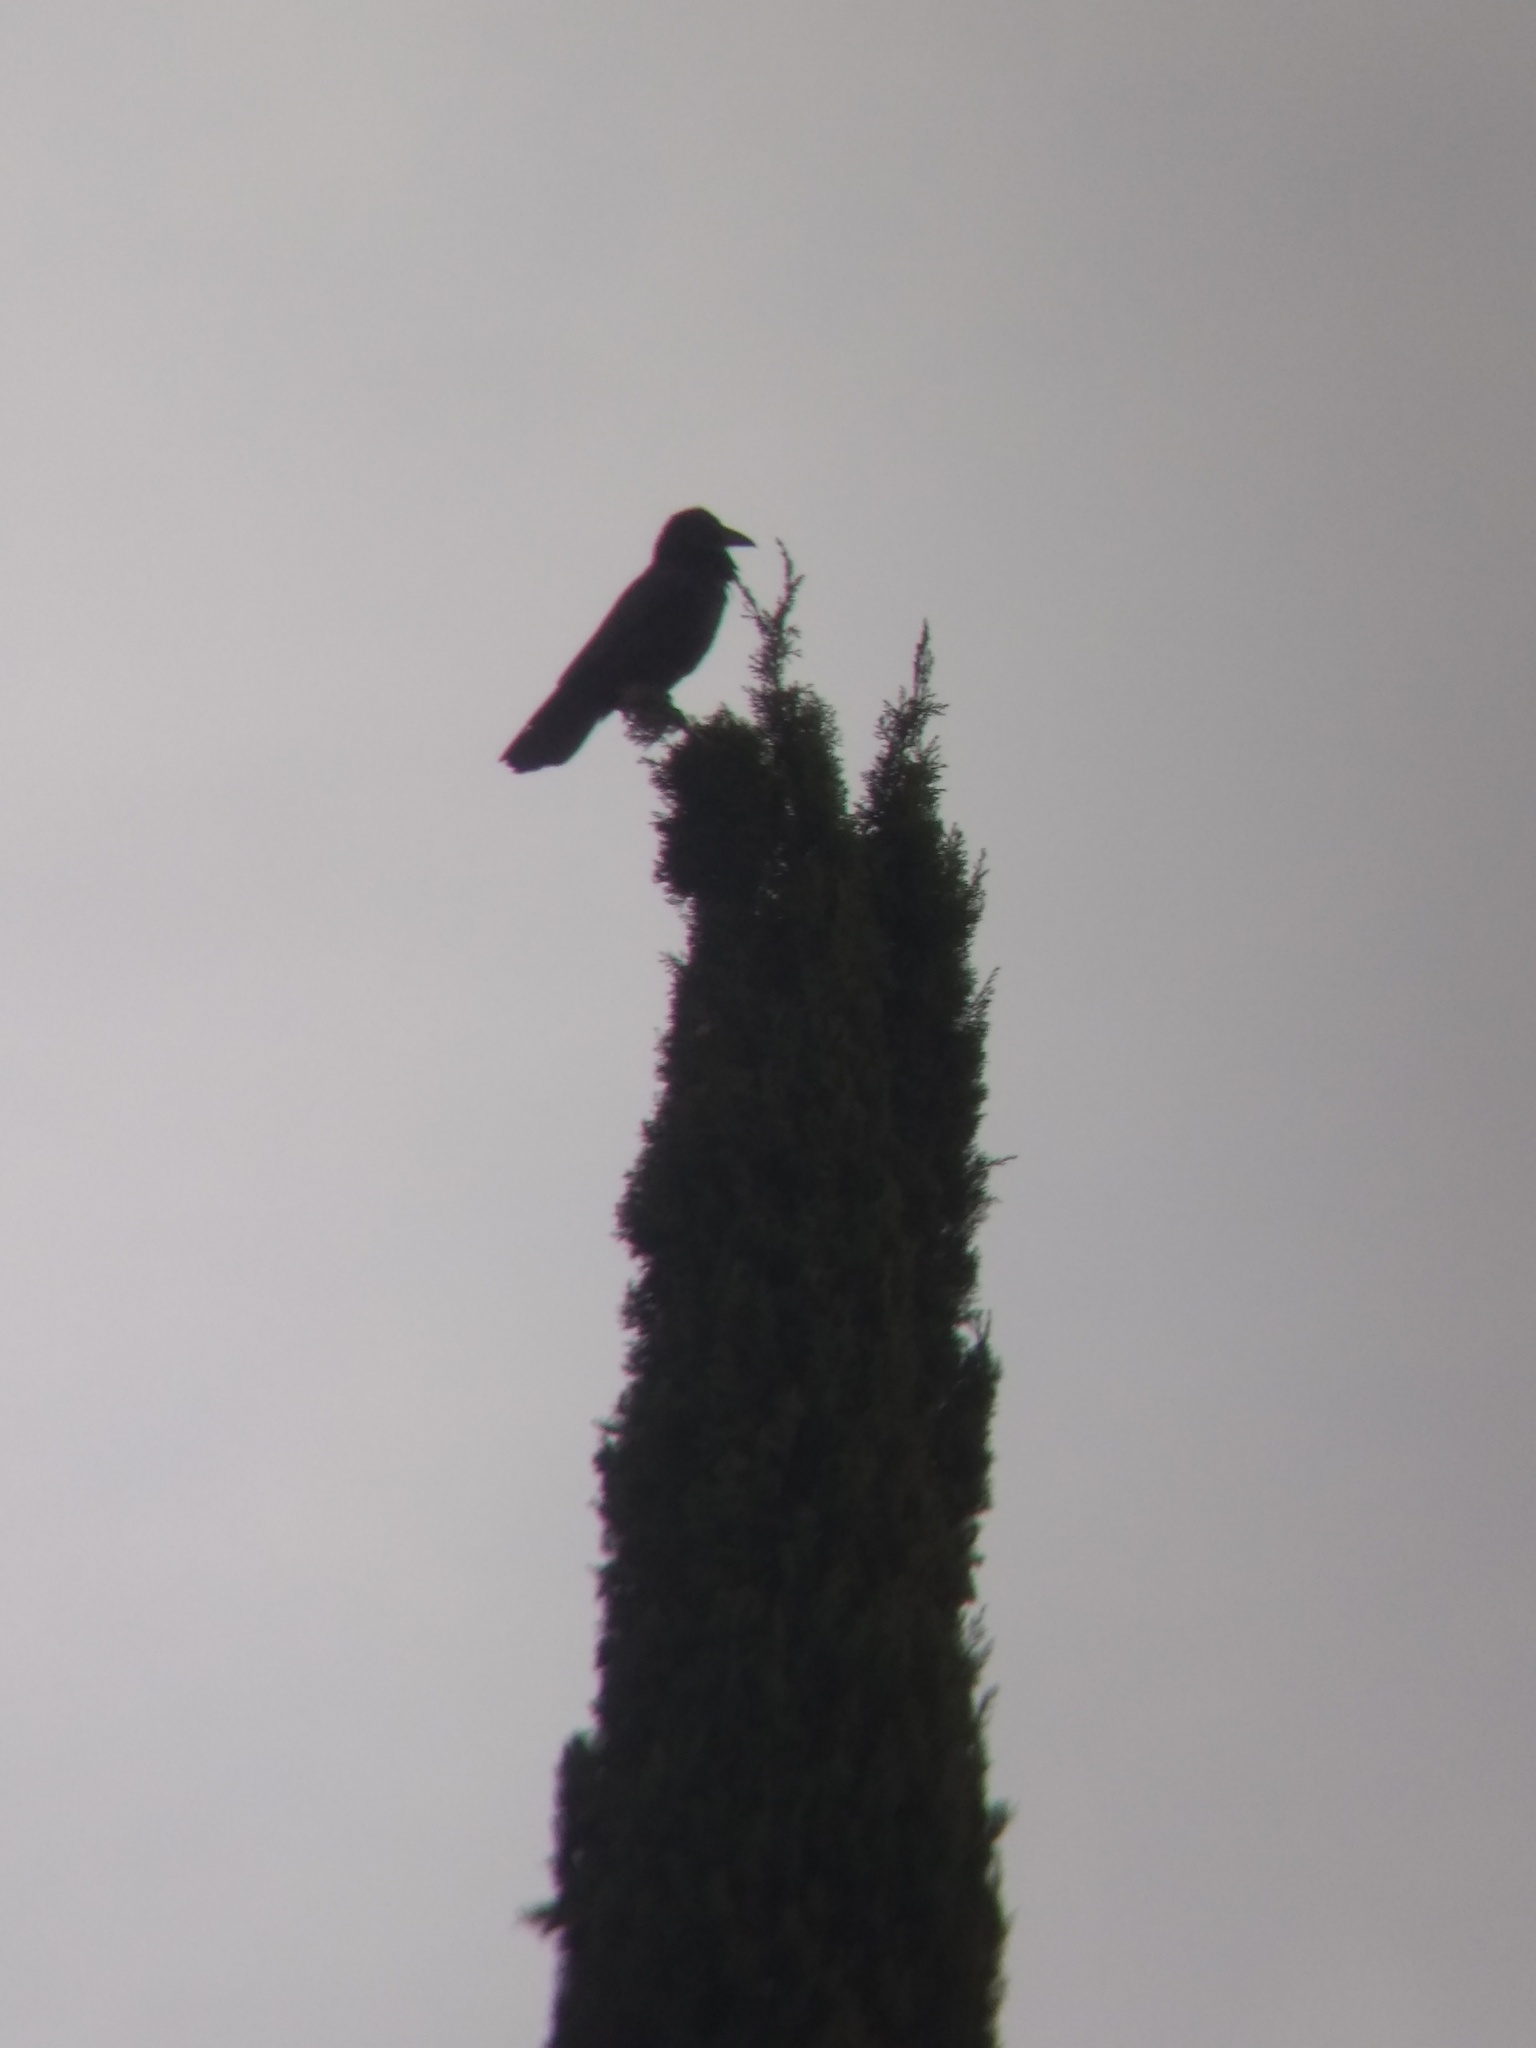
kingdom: Animalia
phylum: Chordata
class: Aves
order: Passeriformes
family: Corvidae
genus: Corvus
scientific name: Corvus corax
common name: Common raven
